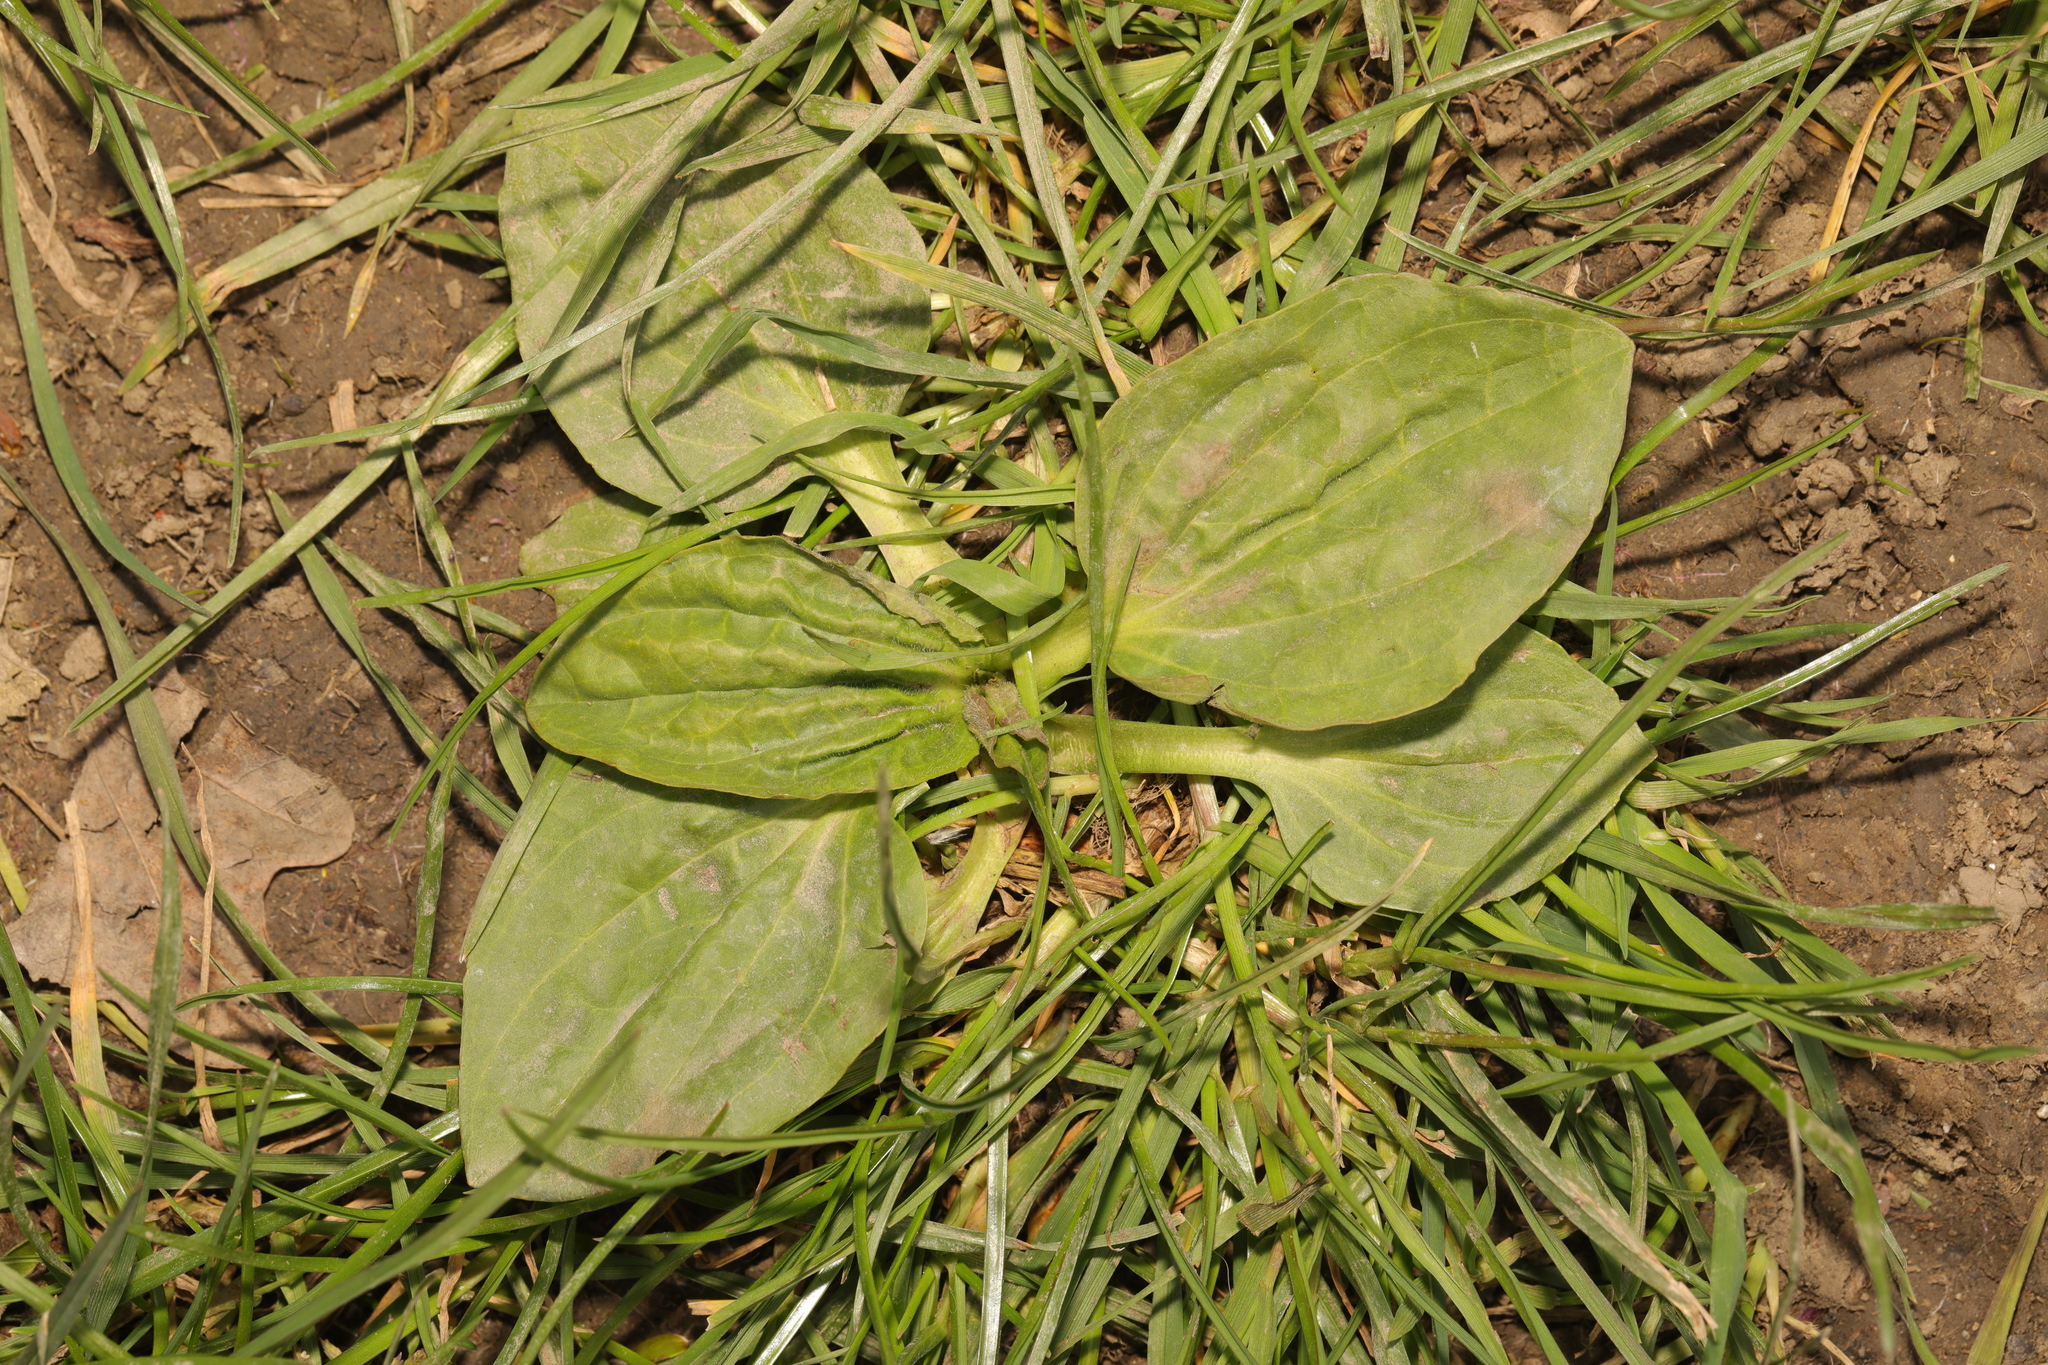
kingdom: Plantae
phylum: Tracheophyta
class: Magnoliopsida
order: Lamiales
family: Plantaginaceae
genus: Plantago
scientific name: Plantago major
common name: Common plantain
